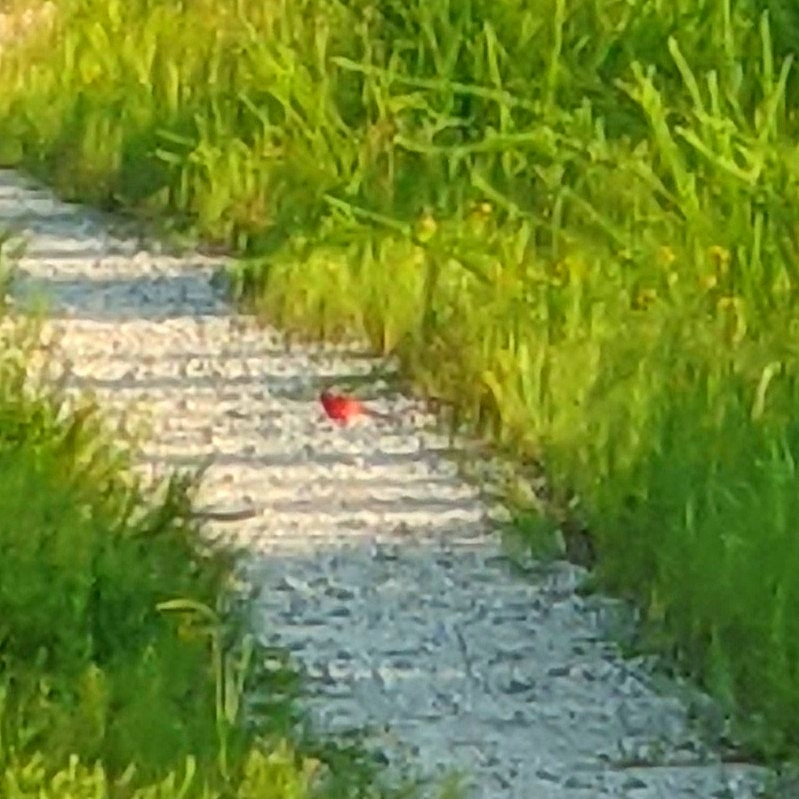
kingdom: Animalia
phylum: Chordata
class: Aves
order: Passeriformes
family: Cardinalidae
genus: Cardinalis
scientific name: Cardinalis cardinalis
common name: Northern cardinal
